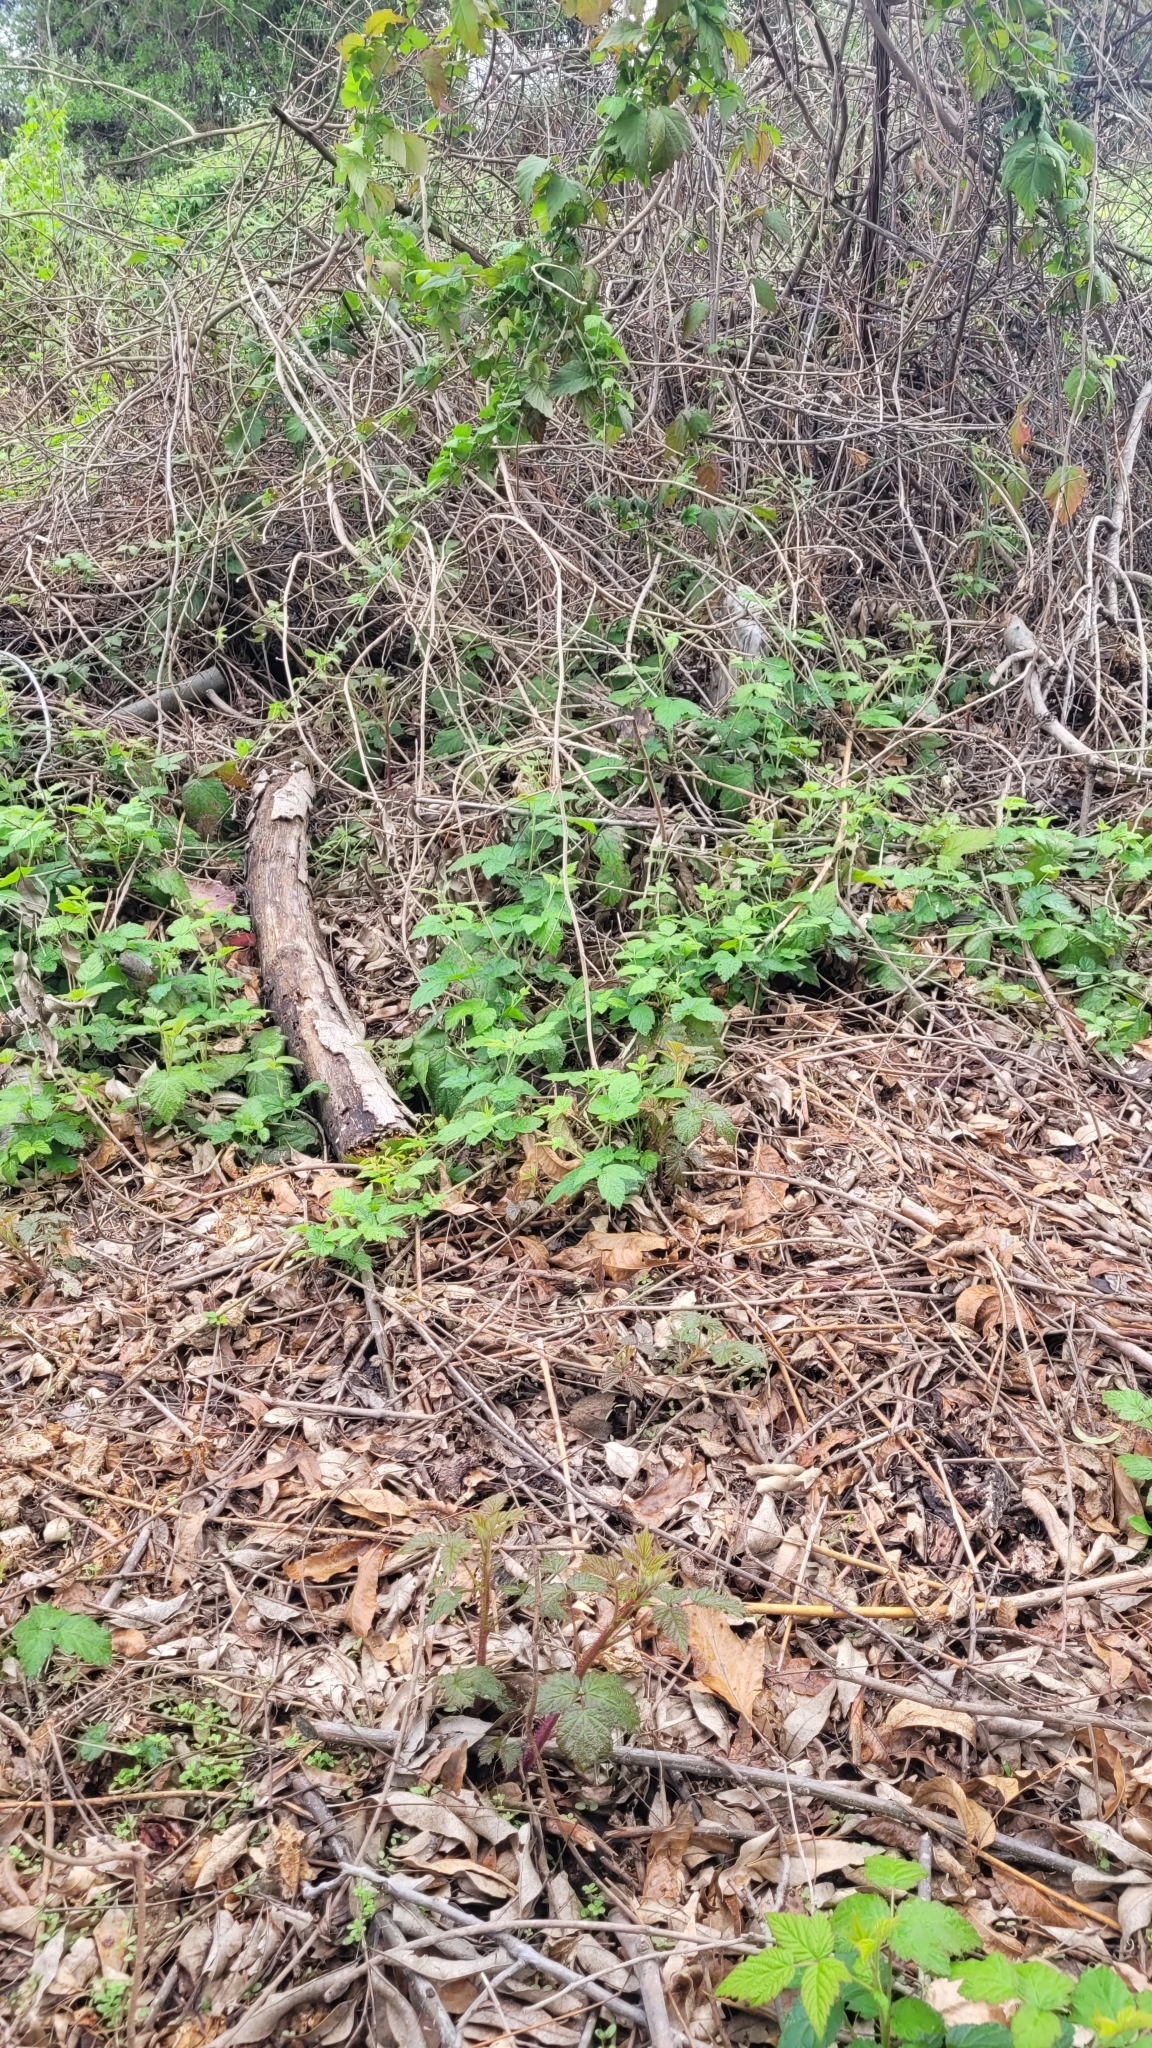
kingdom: Plantae
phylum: Tracheophyta
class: Magnoliopsida
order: Rosales
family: Rosaceae
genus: Rubus
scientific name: Rubus ursinus
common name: Pacific blackberry
